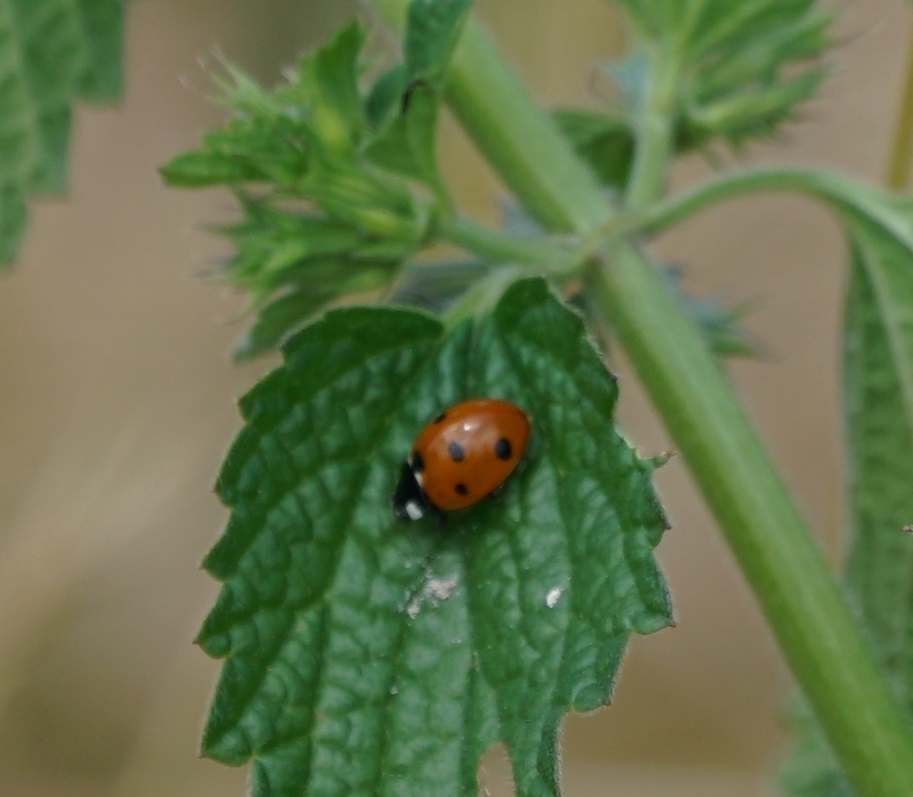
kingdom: Animalia
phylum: Arthropoda
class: Insecta
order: Coleoptera
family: Coccinellidae
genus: Coccinella
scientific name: Coccinella septempunctata
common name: Sevenspotted lady beetle
